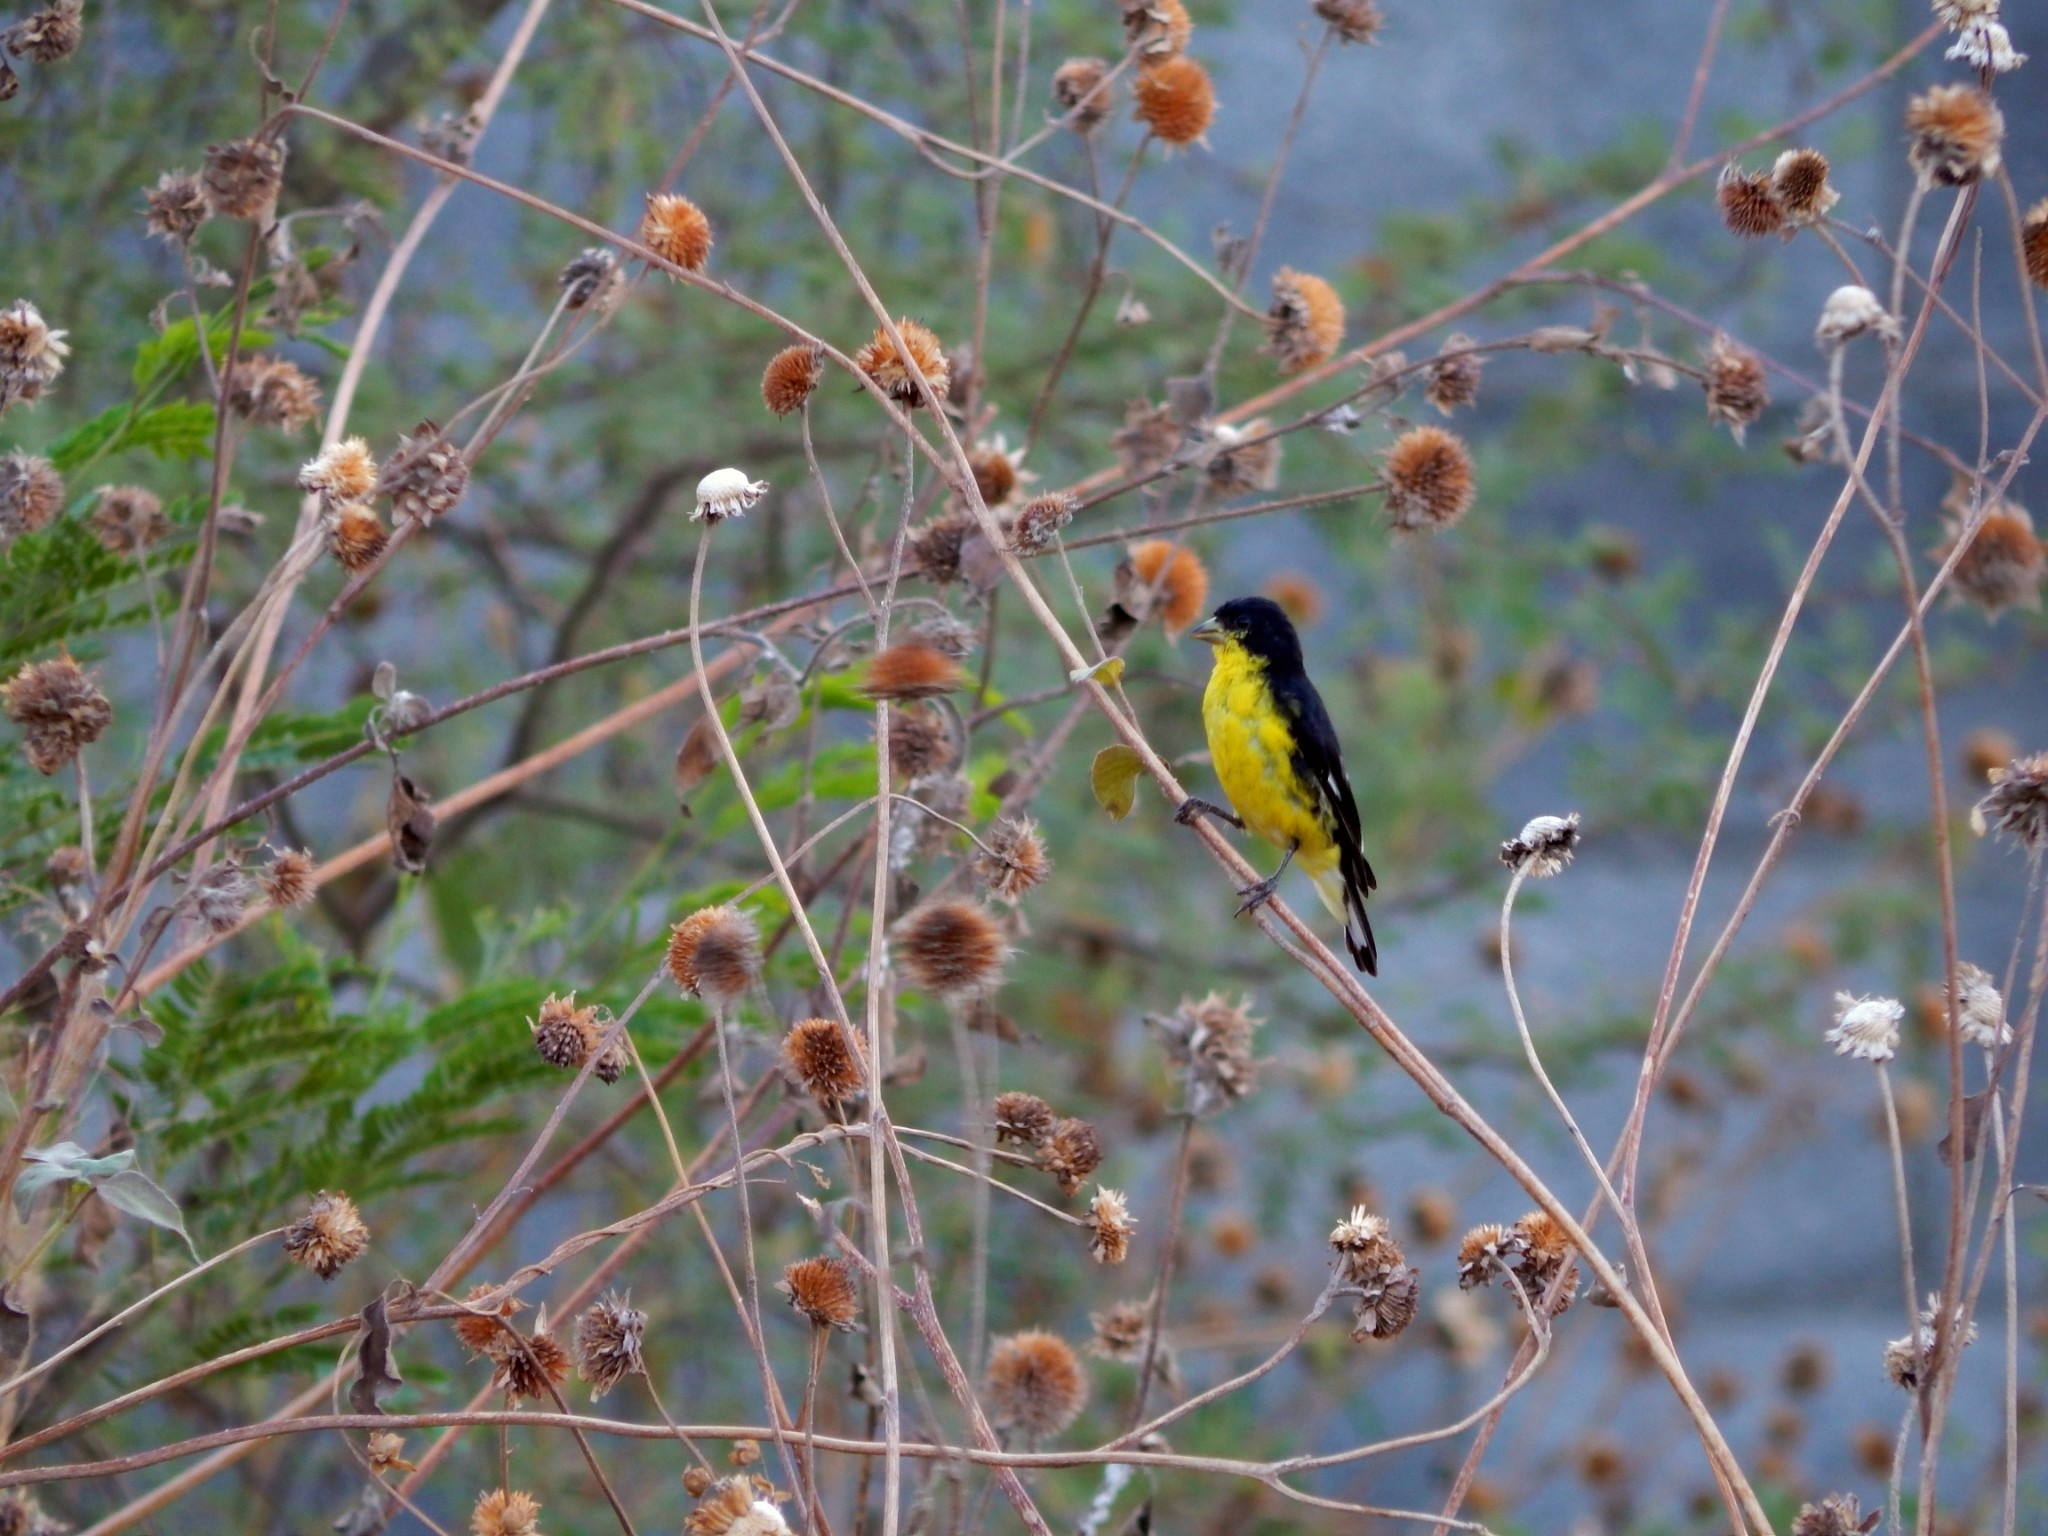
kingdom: Animalia
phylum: Chordata
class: Aves
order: Passeriformes
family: Fringillidae
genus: Spinus
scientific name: Spinus psaltria
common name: Lesser goldfinch
